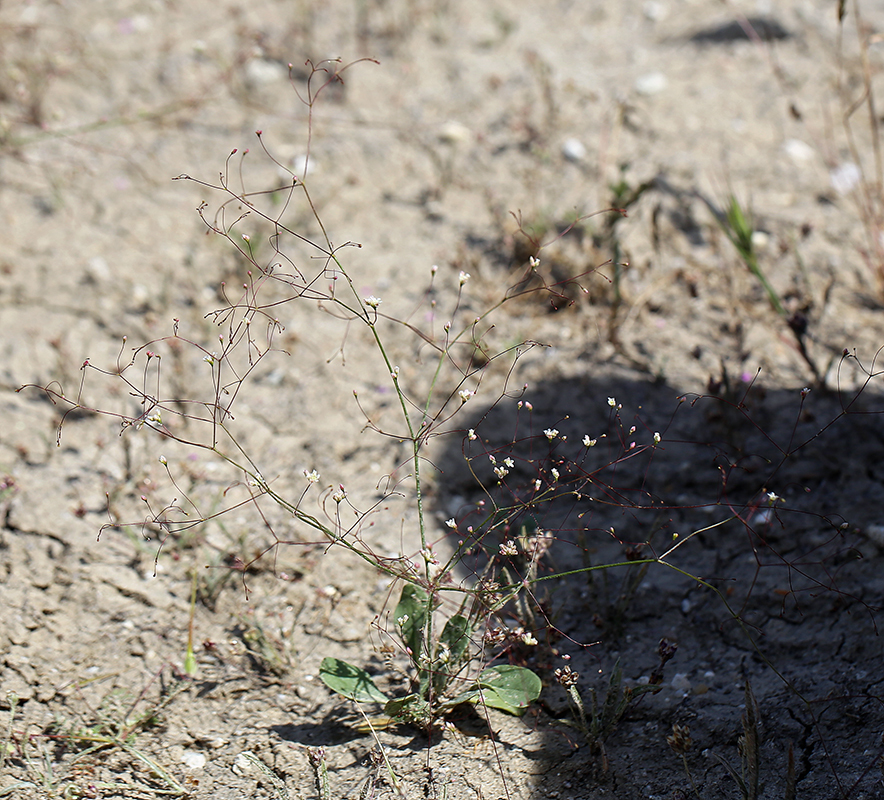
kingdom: Plantae
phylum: Tracheophyta
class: Magnoliopsida
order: Caryophyllales
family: Polygonaceae
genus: Eriogonum
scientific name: Eriogonum ordii
